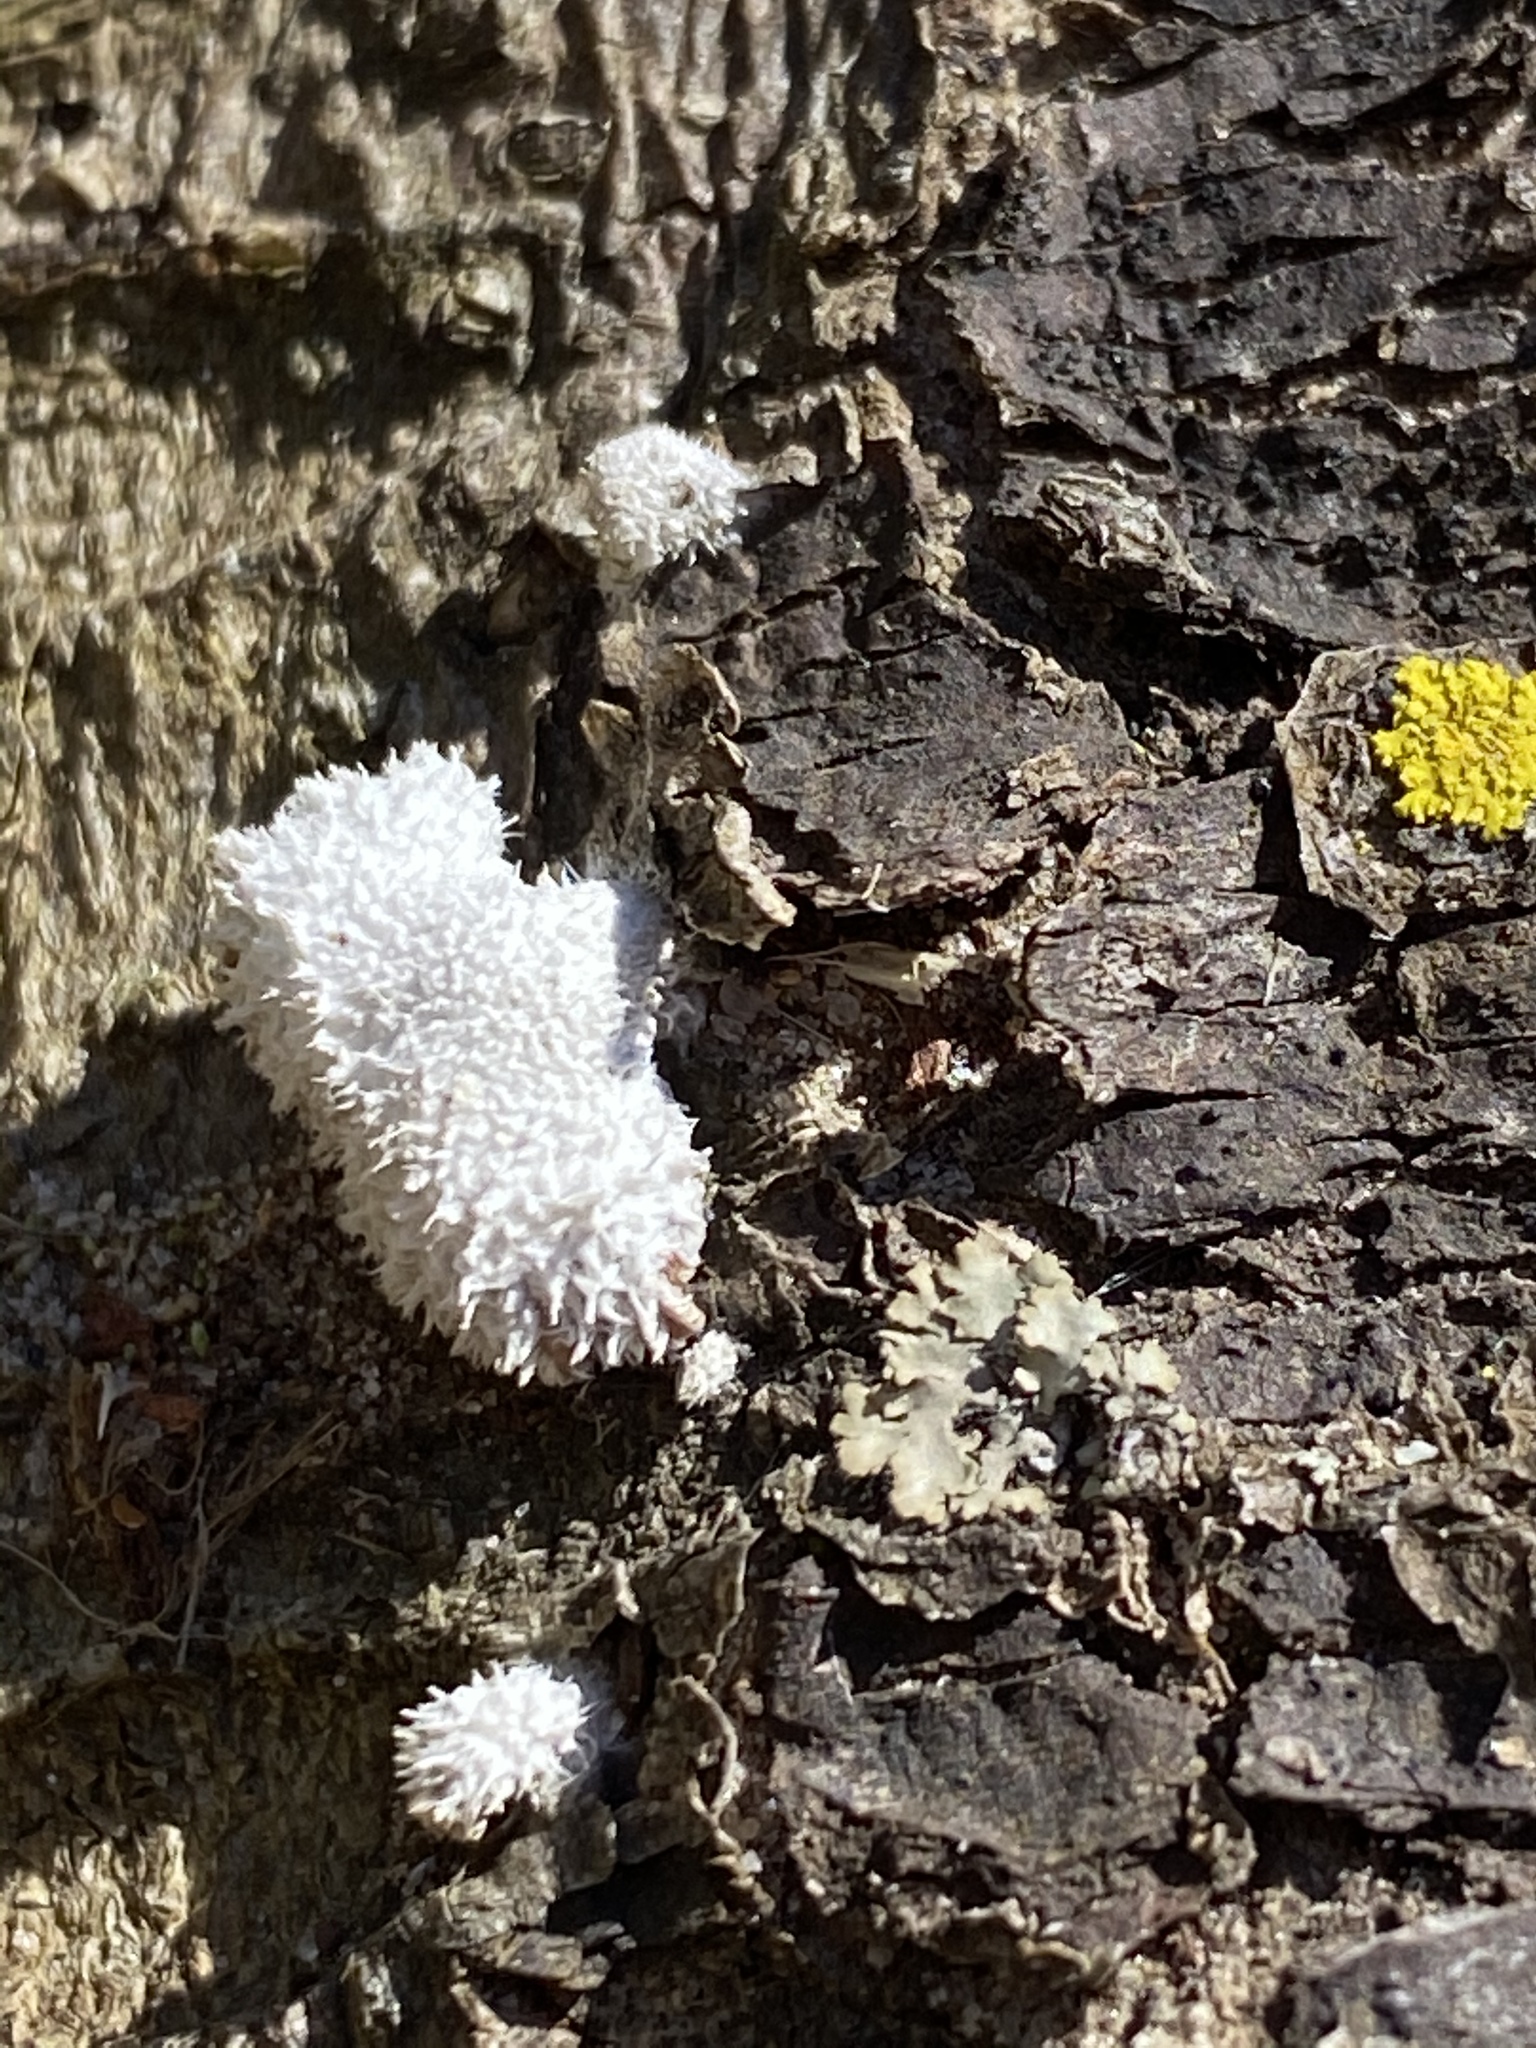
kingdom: Fungi
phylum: Basidiomycota
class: Agaricomycetes
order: Agaricales
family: Schizophyllaceae
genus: Schizophyllum
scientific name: Schizophyllum commune
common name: Common porecrust
